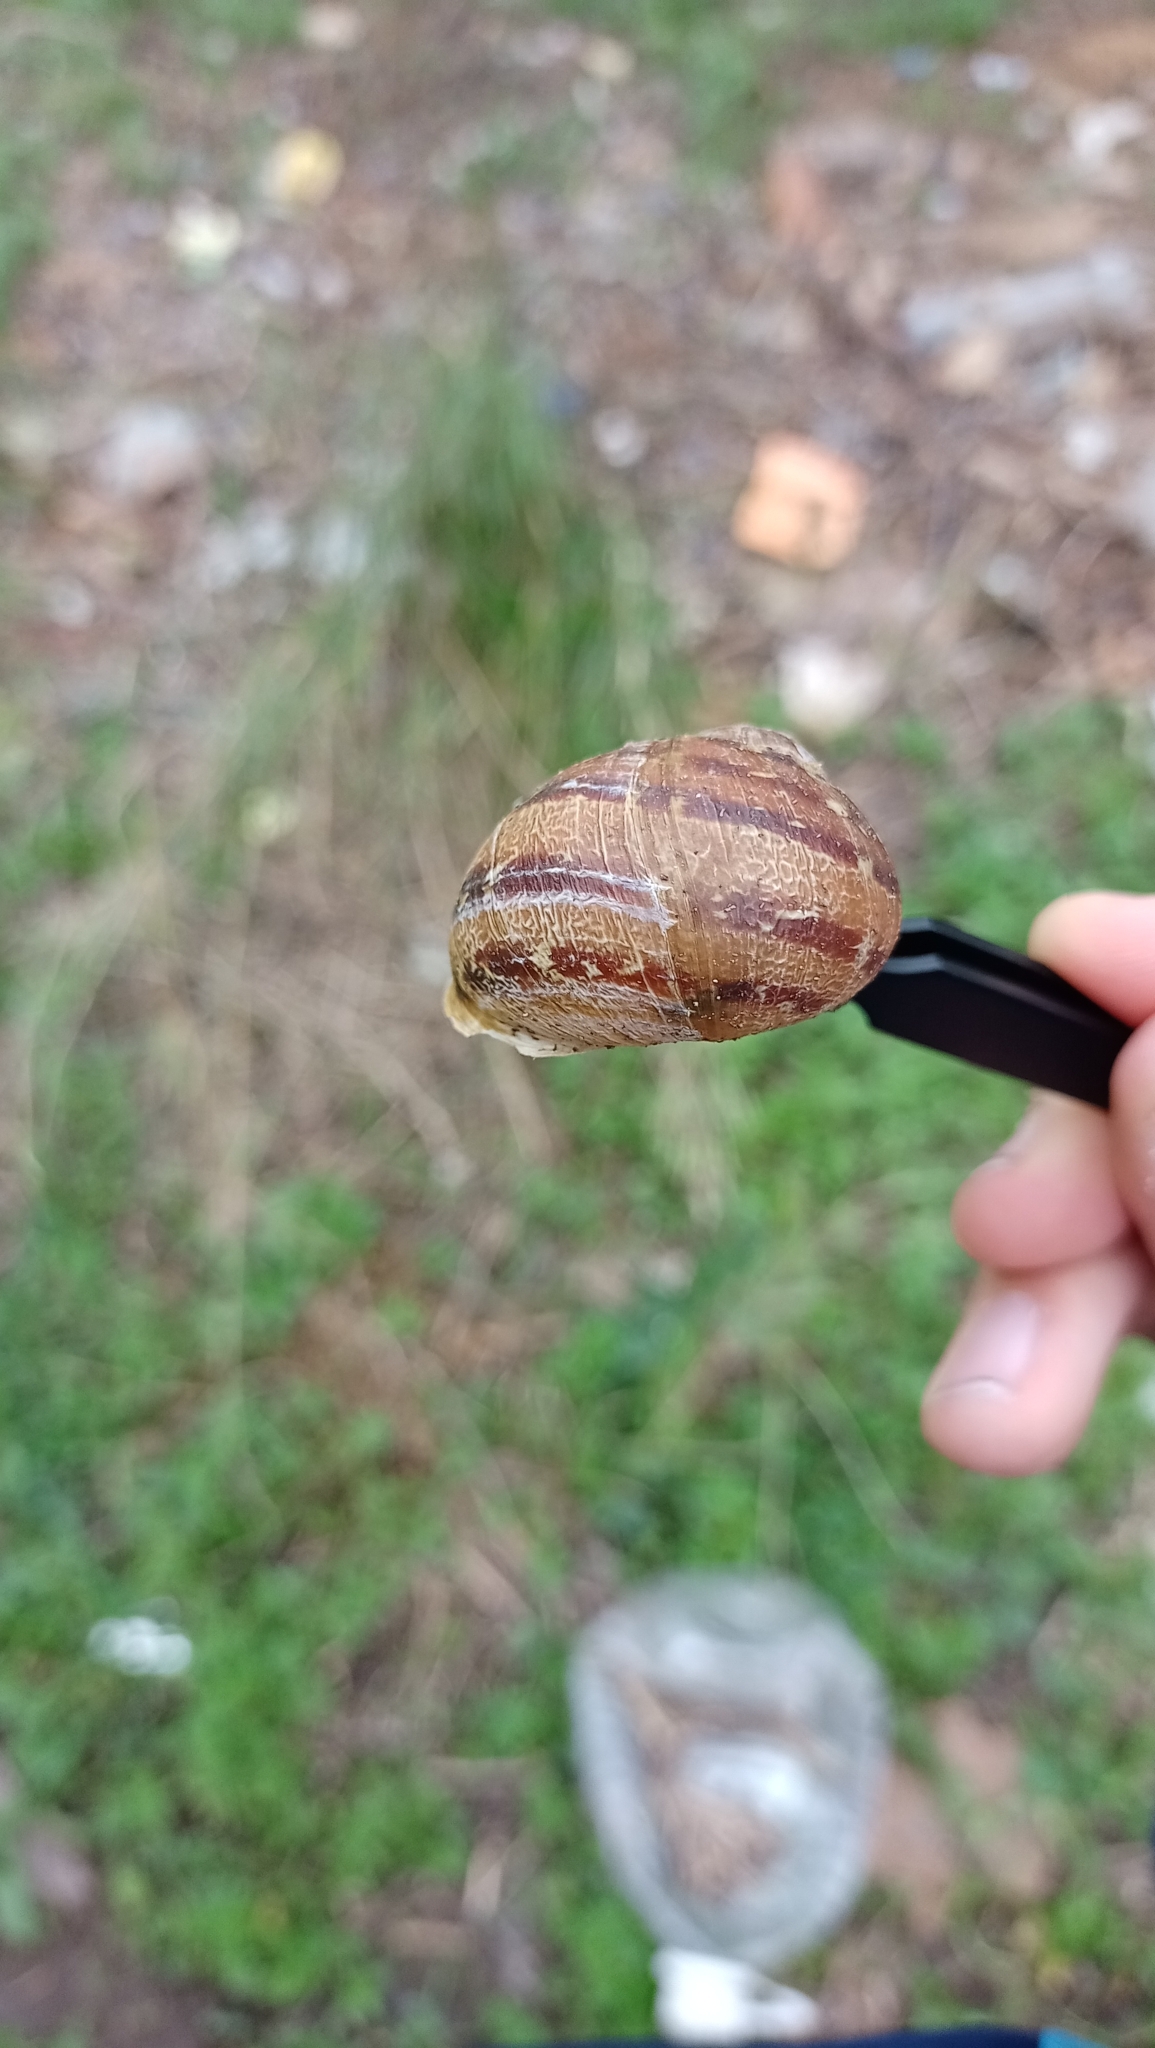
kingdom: Animalia
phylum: Mollusca
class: Gastropoda
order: Stylommatophora
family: Helicidae
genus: Cornu
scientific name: Cornu aspersum
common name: Brown garden snail
